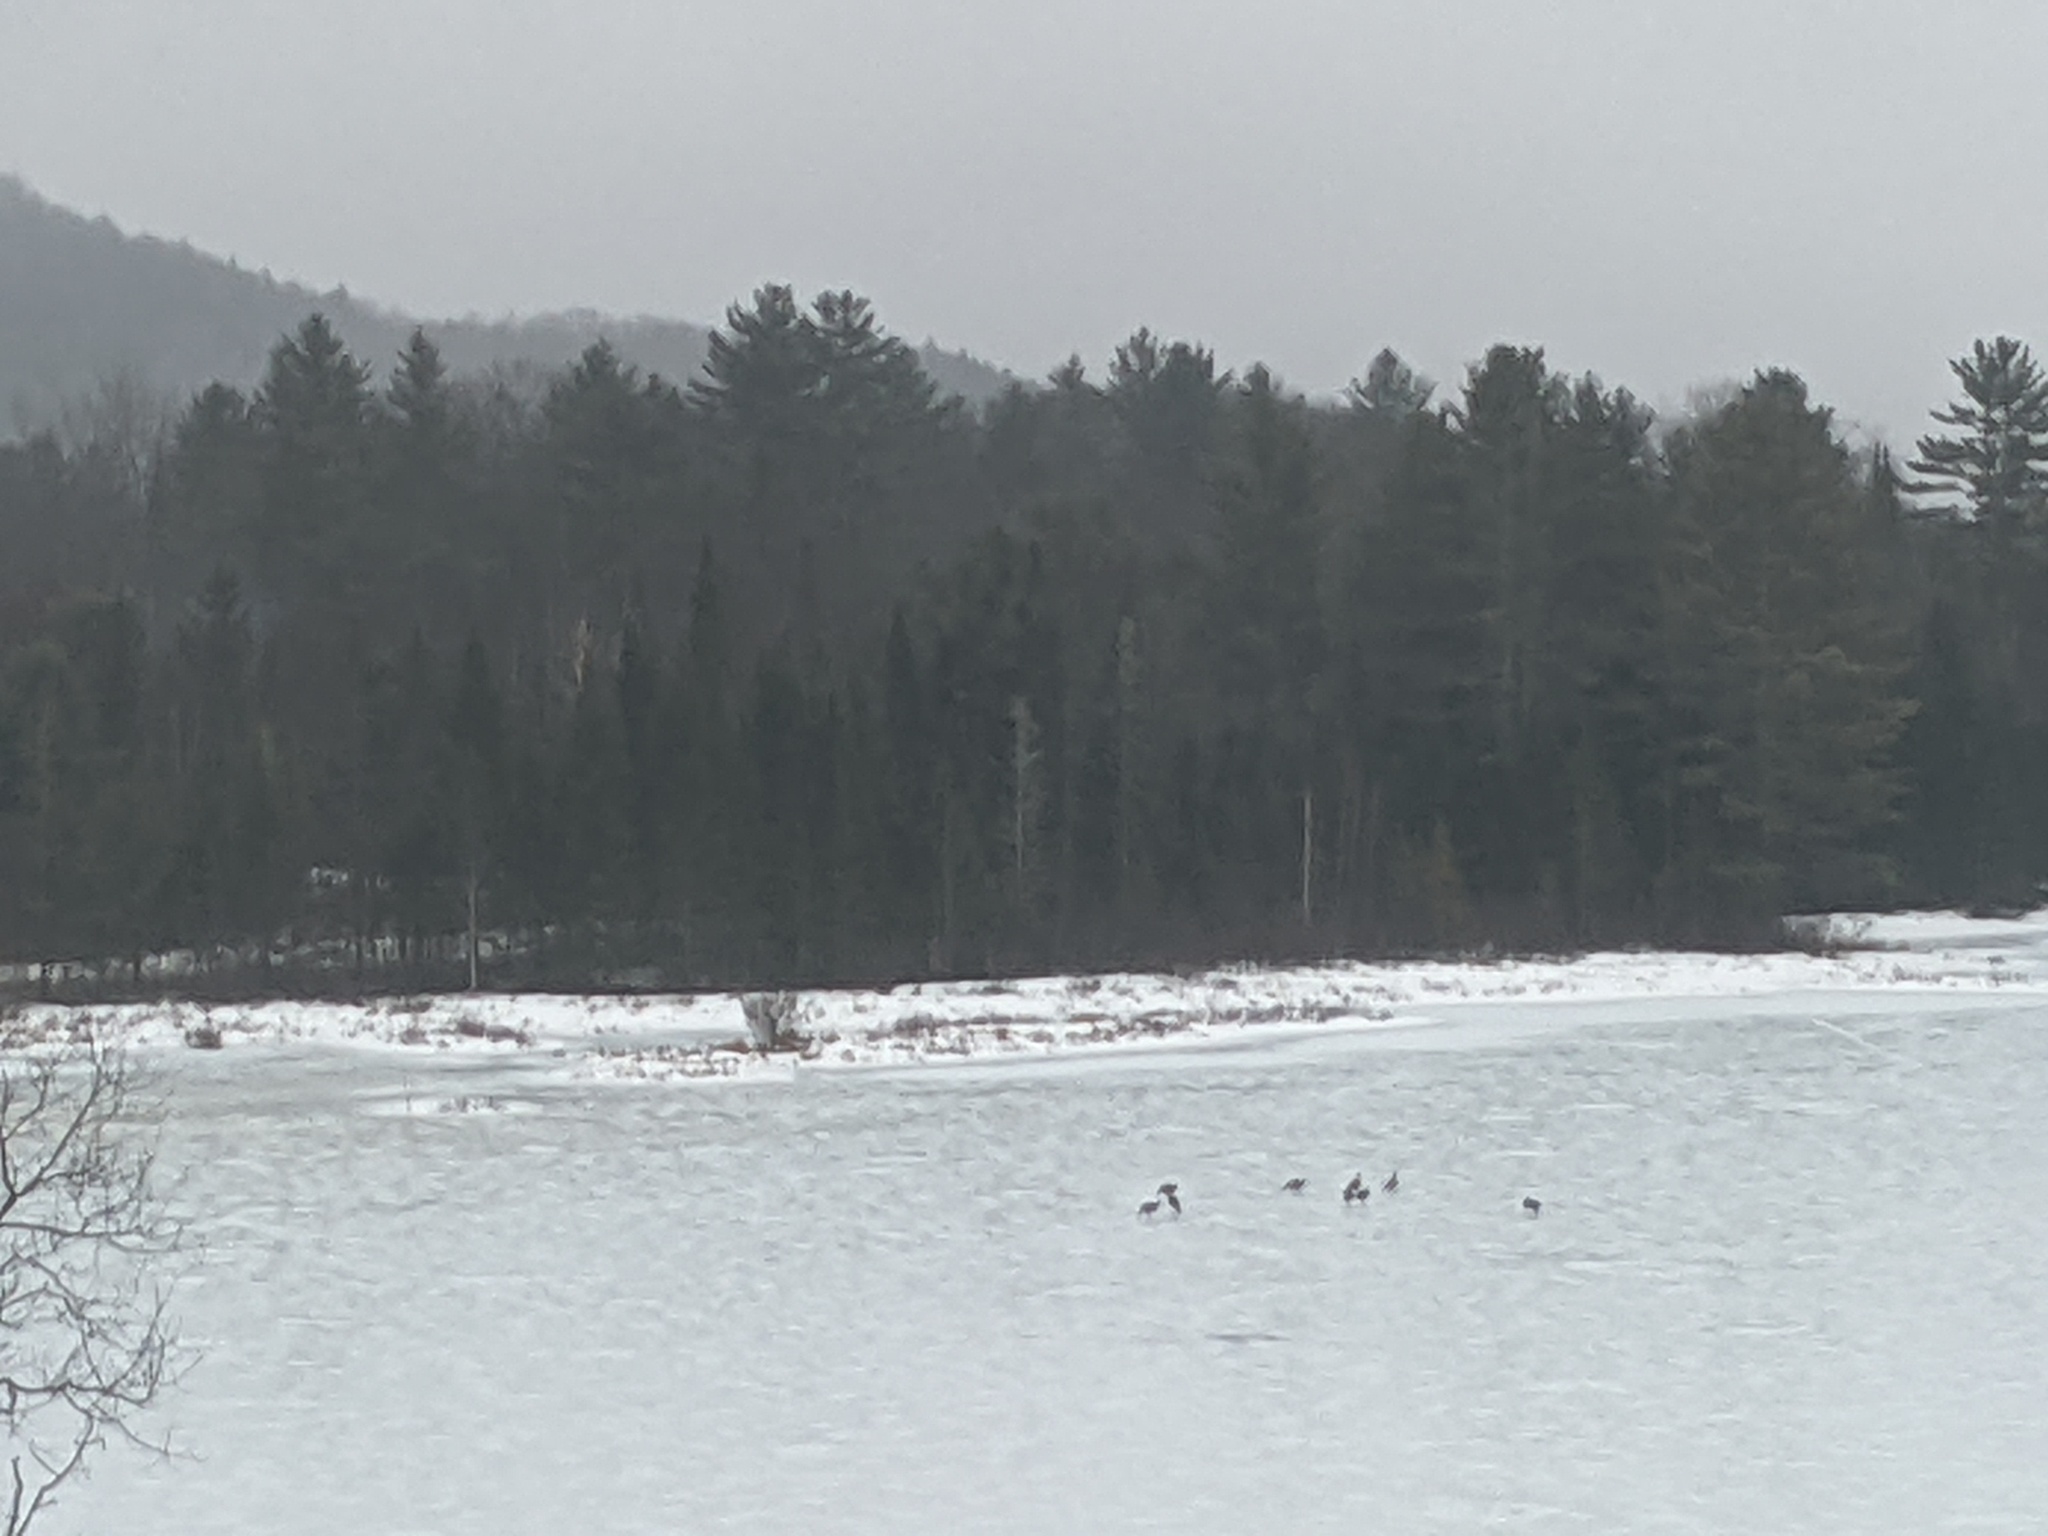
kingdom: Animalia
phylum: Chordata
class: Aves
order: Galliformes
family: Phasianidae
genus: Meleagris
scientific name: Meleagris gallopavo
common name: Wild turkey
